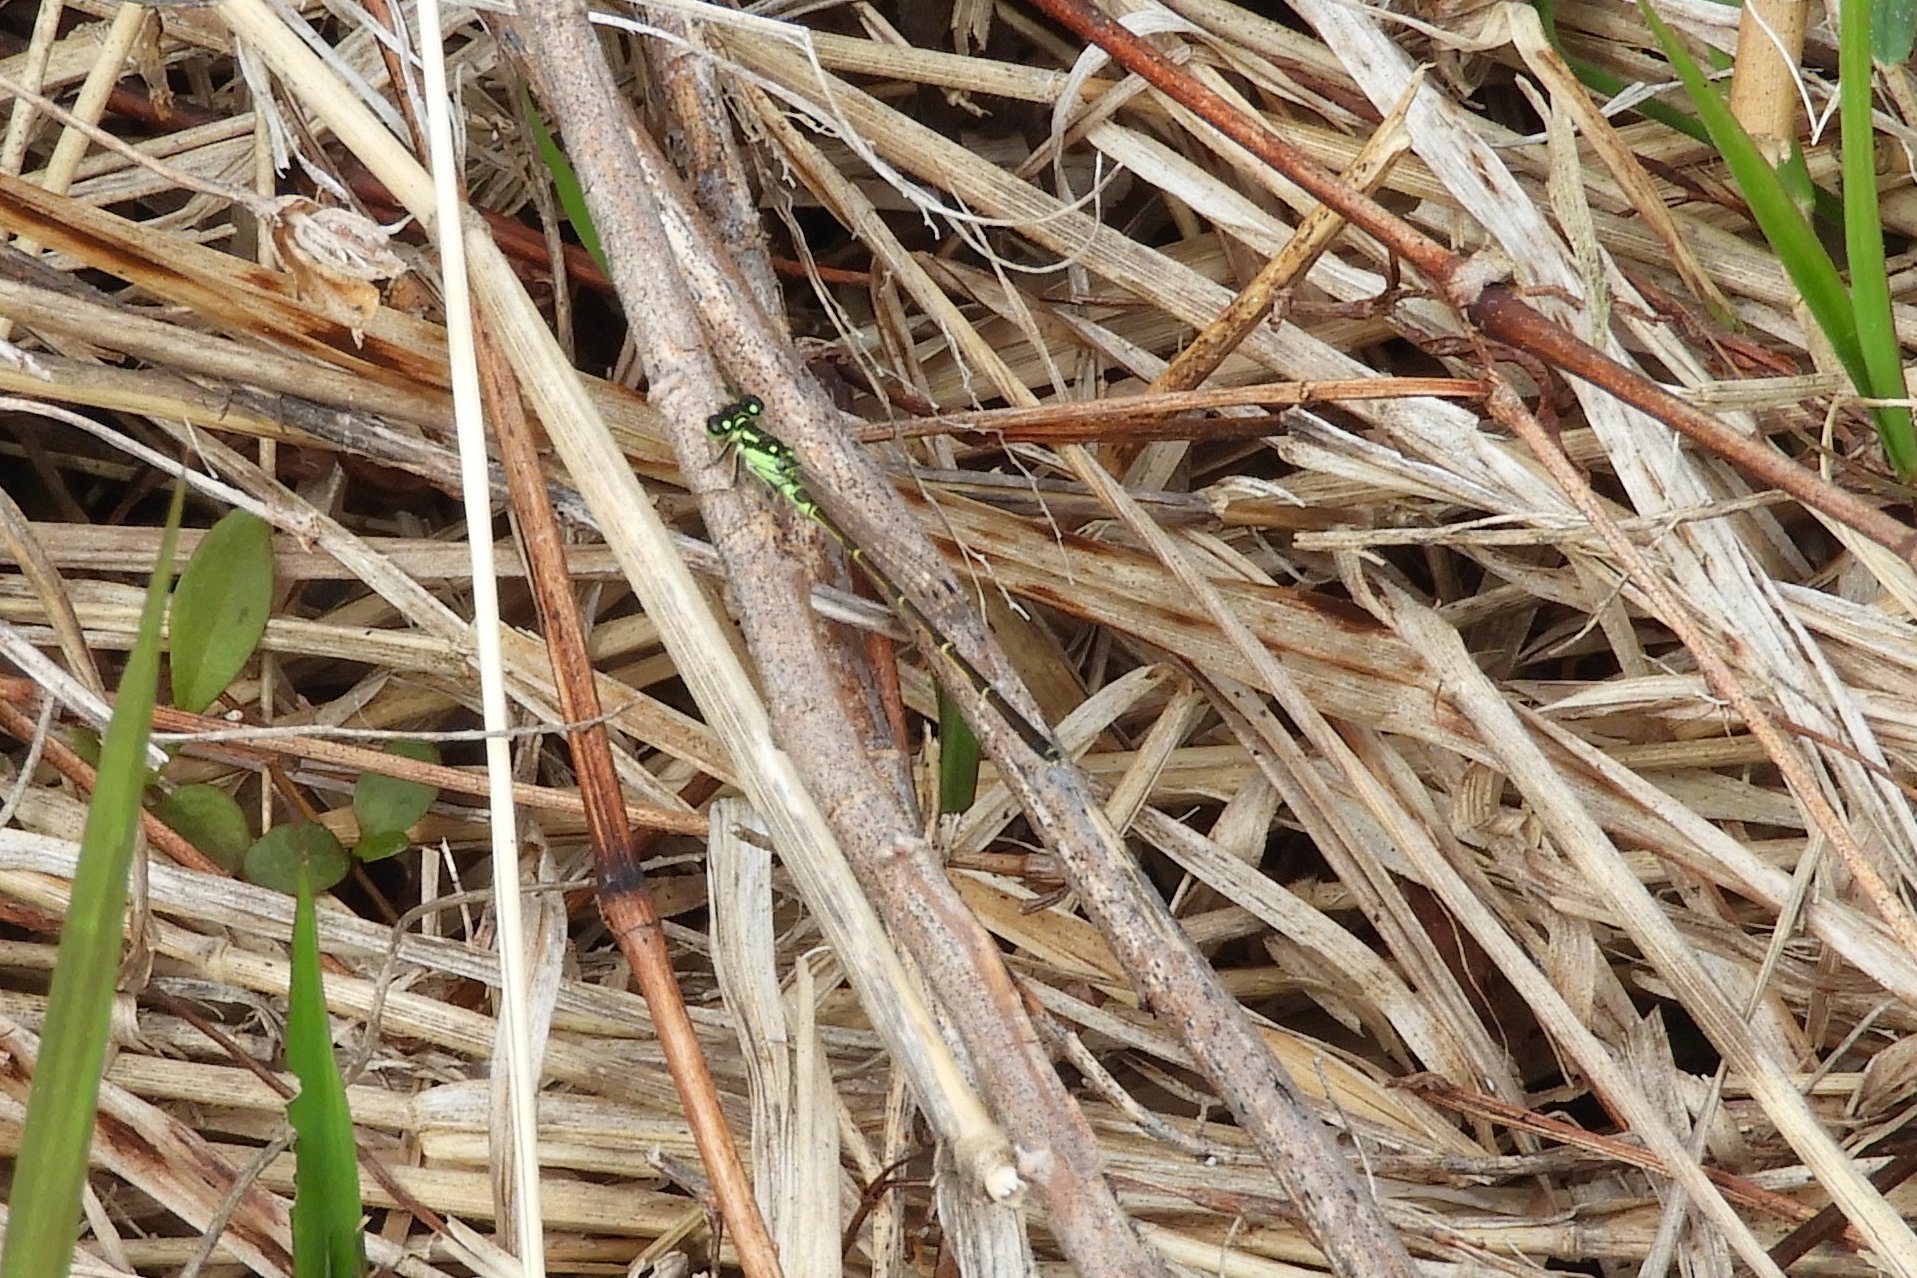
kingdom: Animalia
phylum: Arthropoda
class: Insecta
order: Odonata
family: Coenagrionidae
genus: Ischnura
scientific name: Ischnura posita
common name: Fragile forktail
